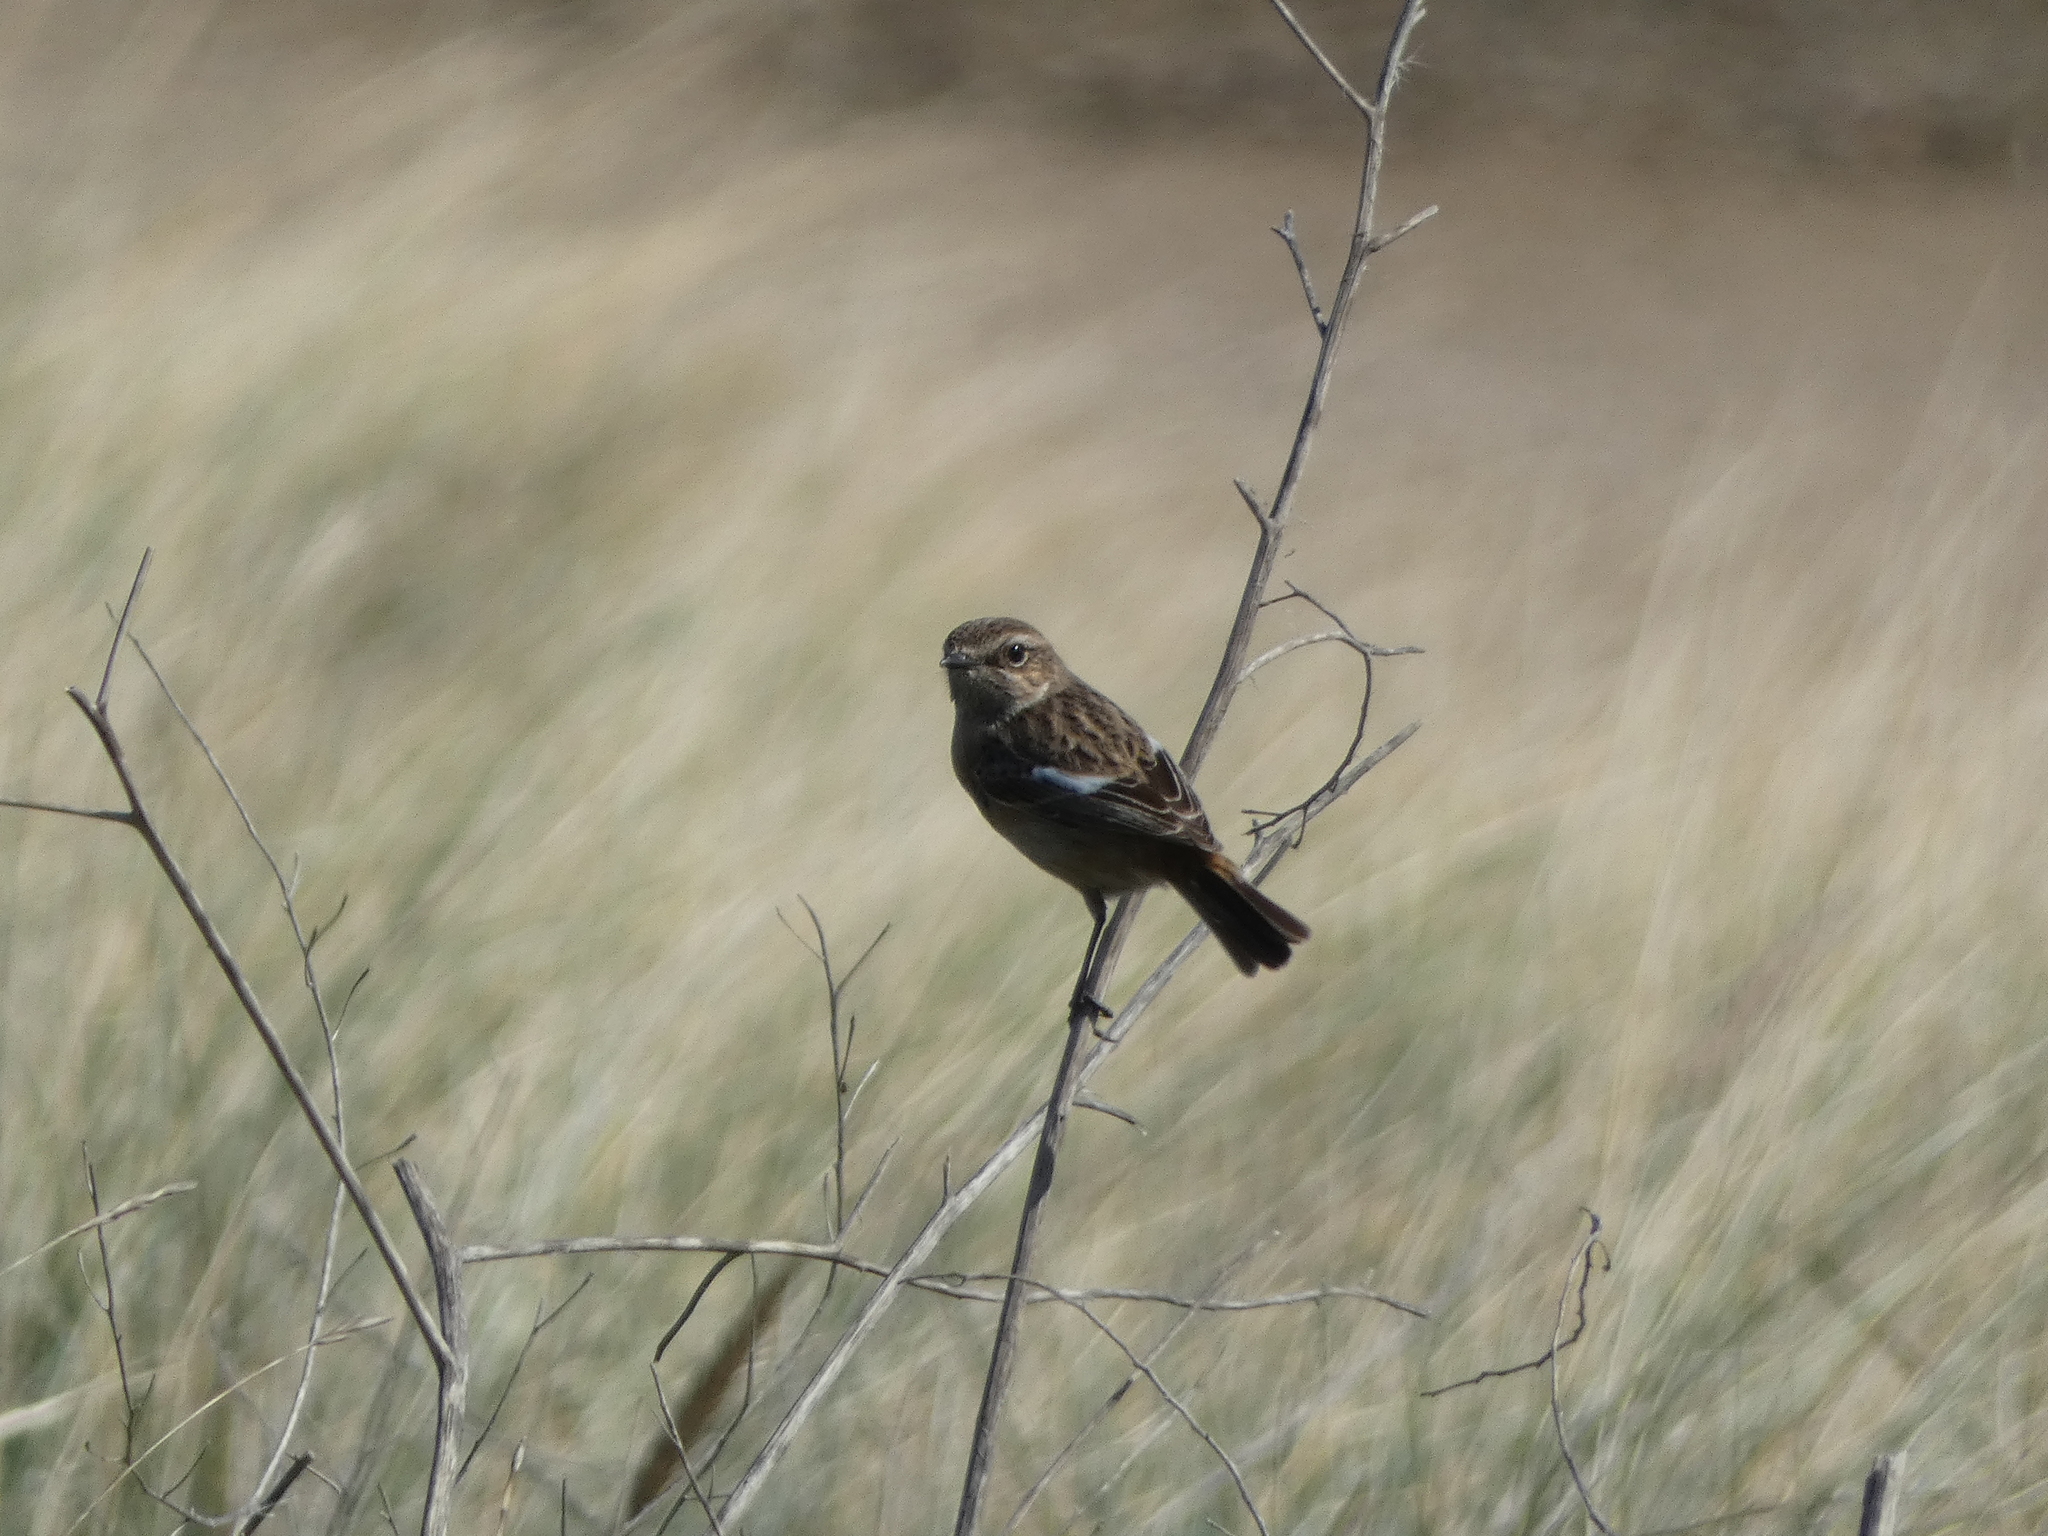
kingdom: Animalia
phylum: Chordata
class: Aves
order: Passeriformes
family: Muscicapidae
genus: Saxicola
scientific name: Saxicola rubicola
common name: European stonechat
